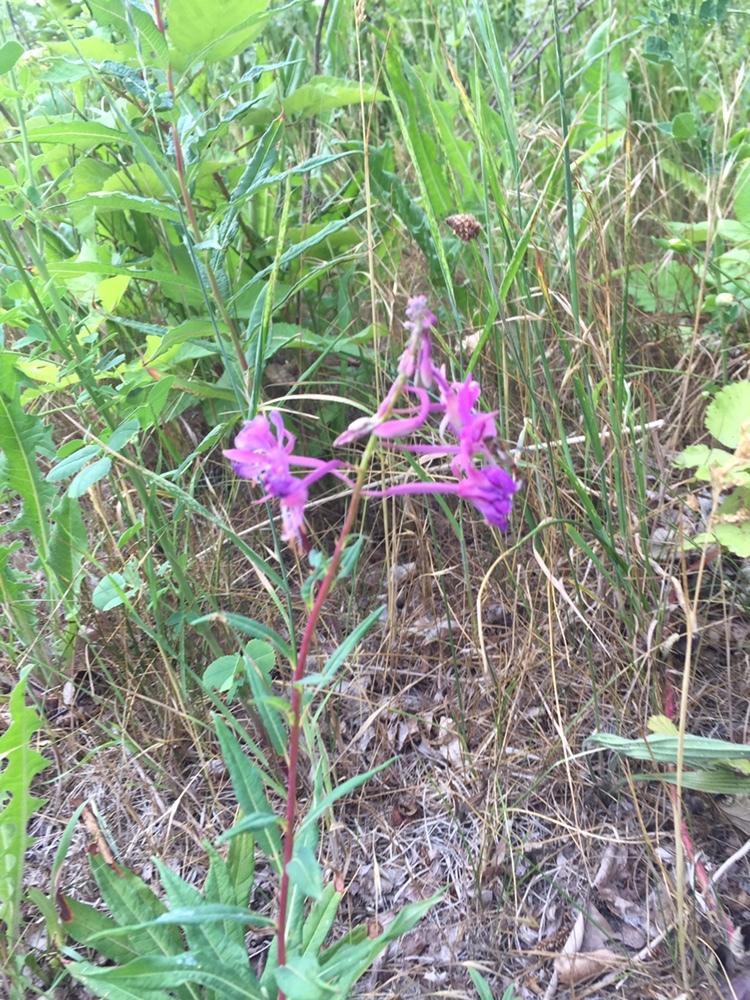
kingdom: Plantae
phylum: Tracheophyta
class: Magnoliopsida
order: Myrtales
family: Onagraceae
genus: Chamaenerion
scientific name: Chamaenerion angustifolium
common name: Fireweed
